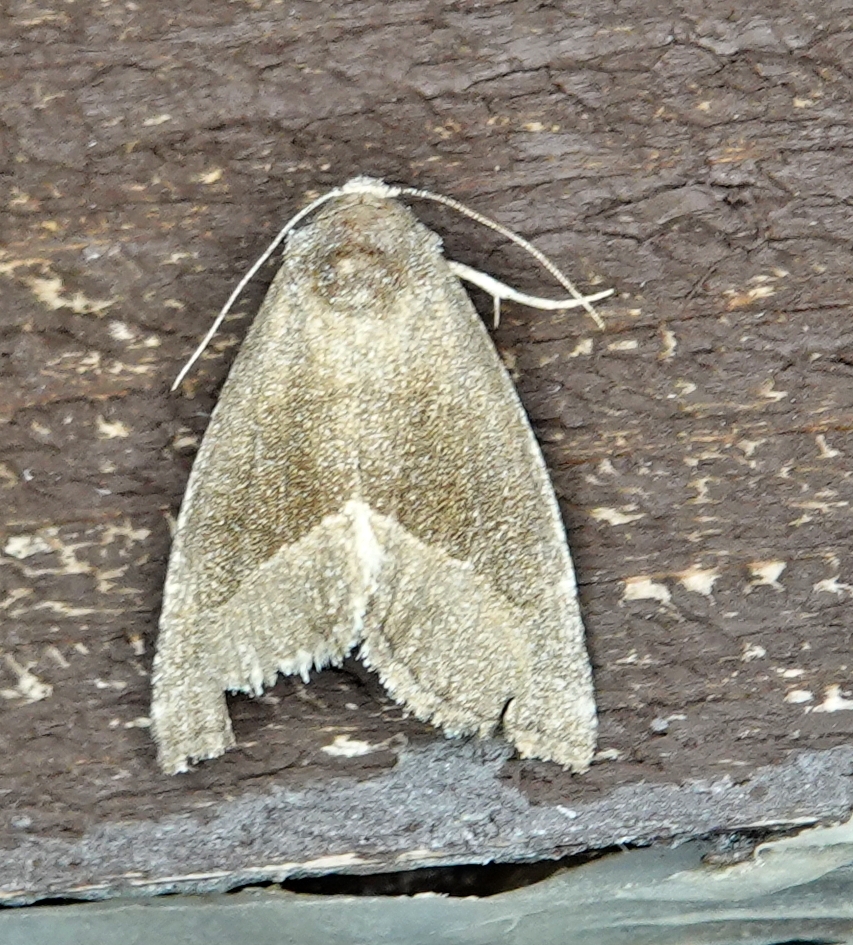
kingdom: Animalia
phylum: Arthropoda
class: Insecta
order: Lepidoptera
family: Noctuidae
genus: Plagiomimicus
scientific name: Plagiomimicus spumosum
